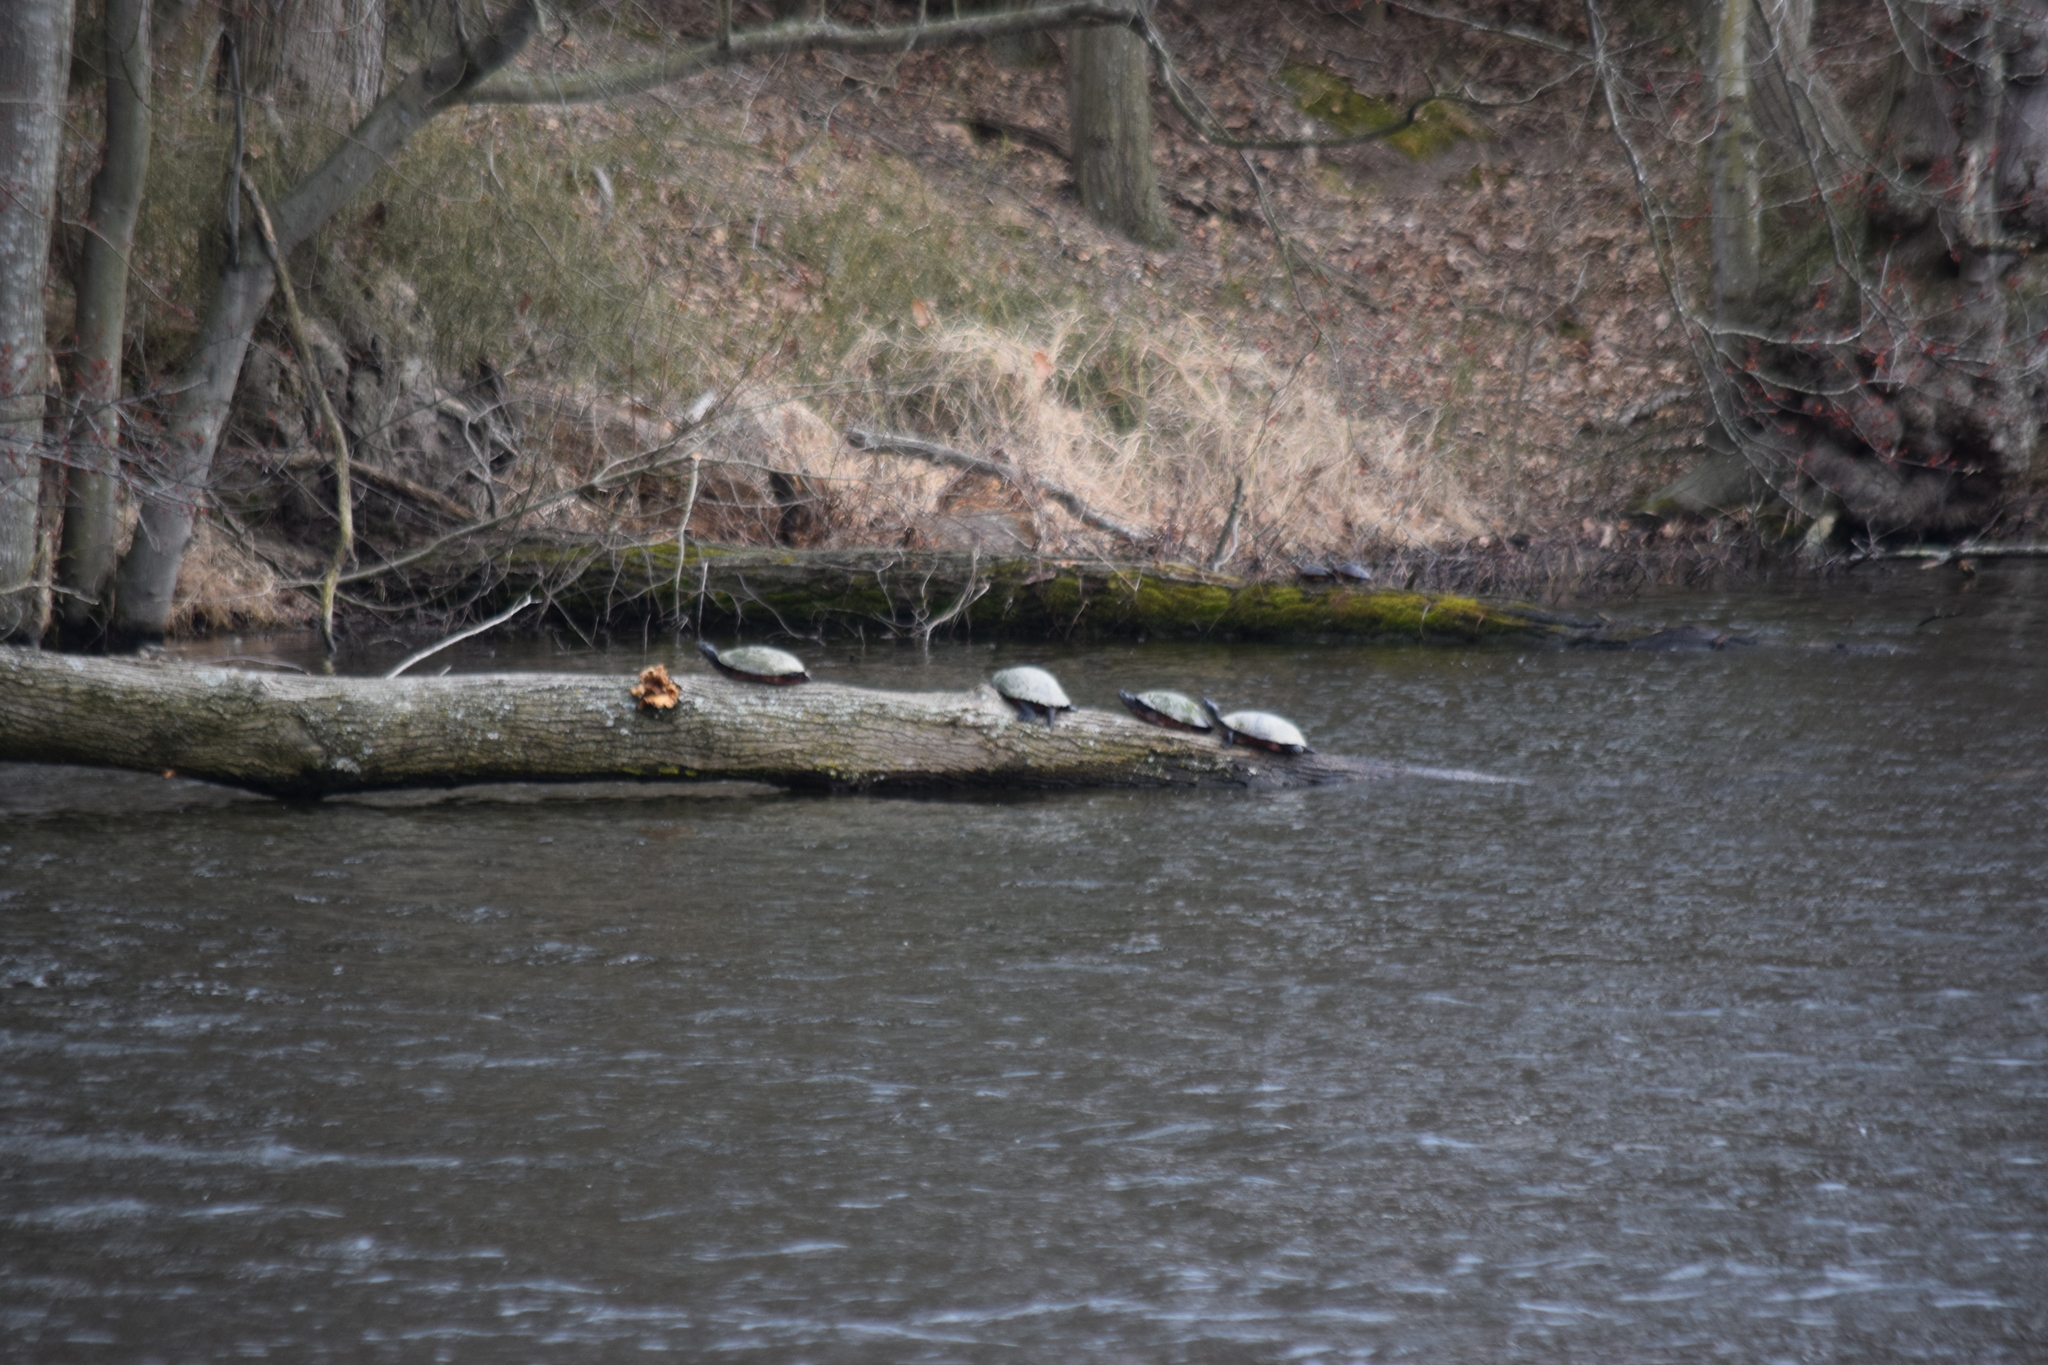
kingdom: Animalia
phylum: Chordata
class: Testudines
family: Emydidae
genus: Pseudemys
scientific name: Pseudemys rubriventris
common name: American red-bellied turtle
